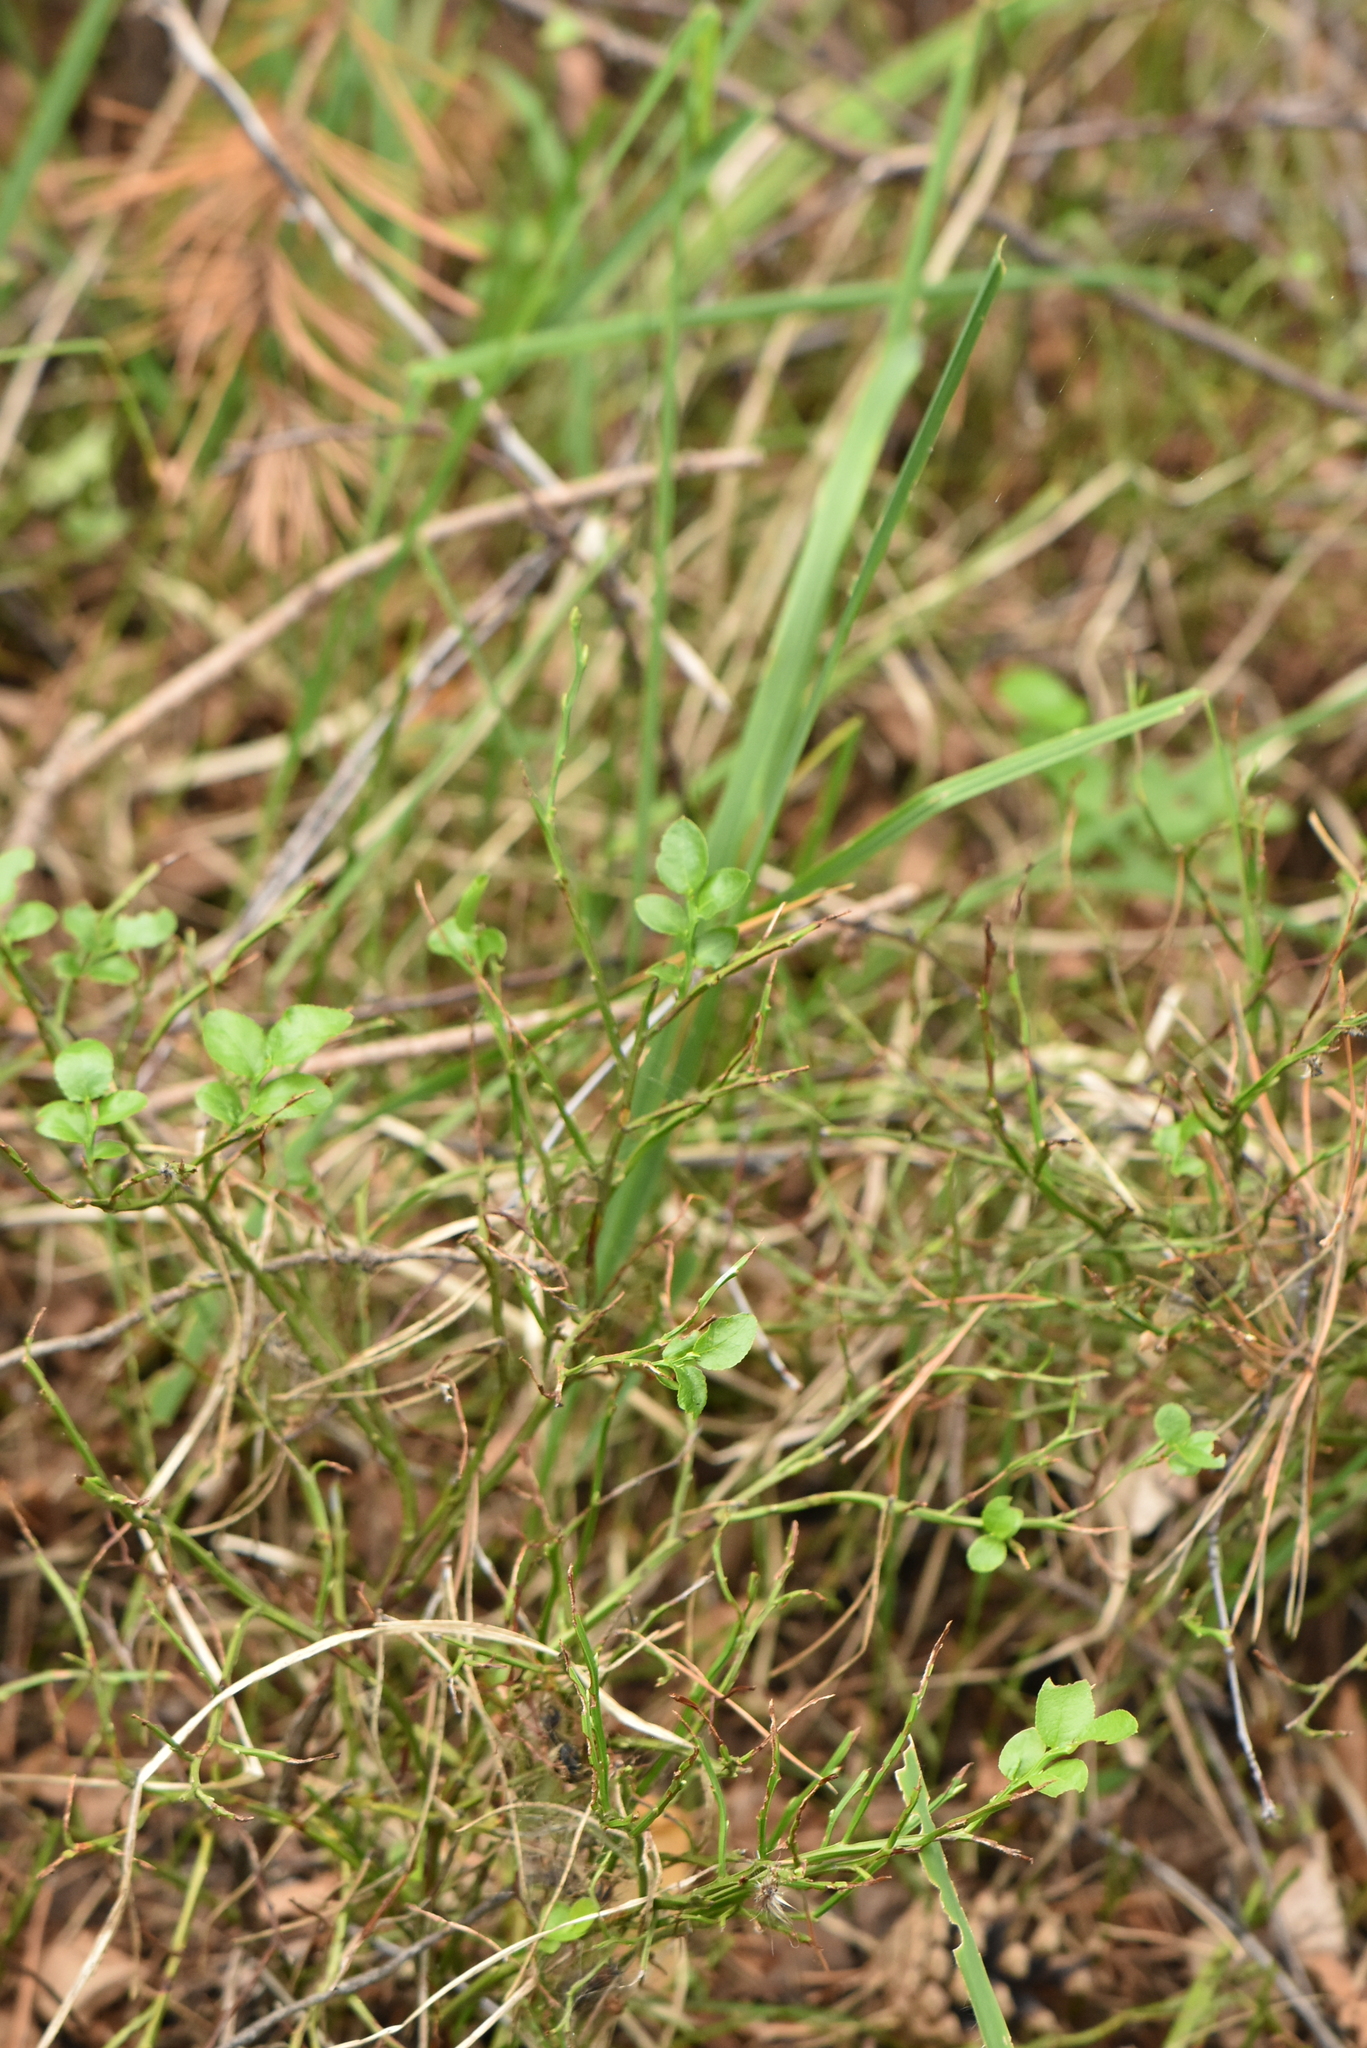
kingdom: Plantae
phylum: Tracheophyta
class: Magnoliopsida
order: Ericales
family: Ericaceae
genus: Vaccinium
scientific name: Vaccinium myrtillus
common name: Bilberry
